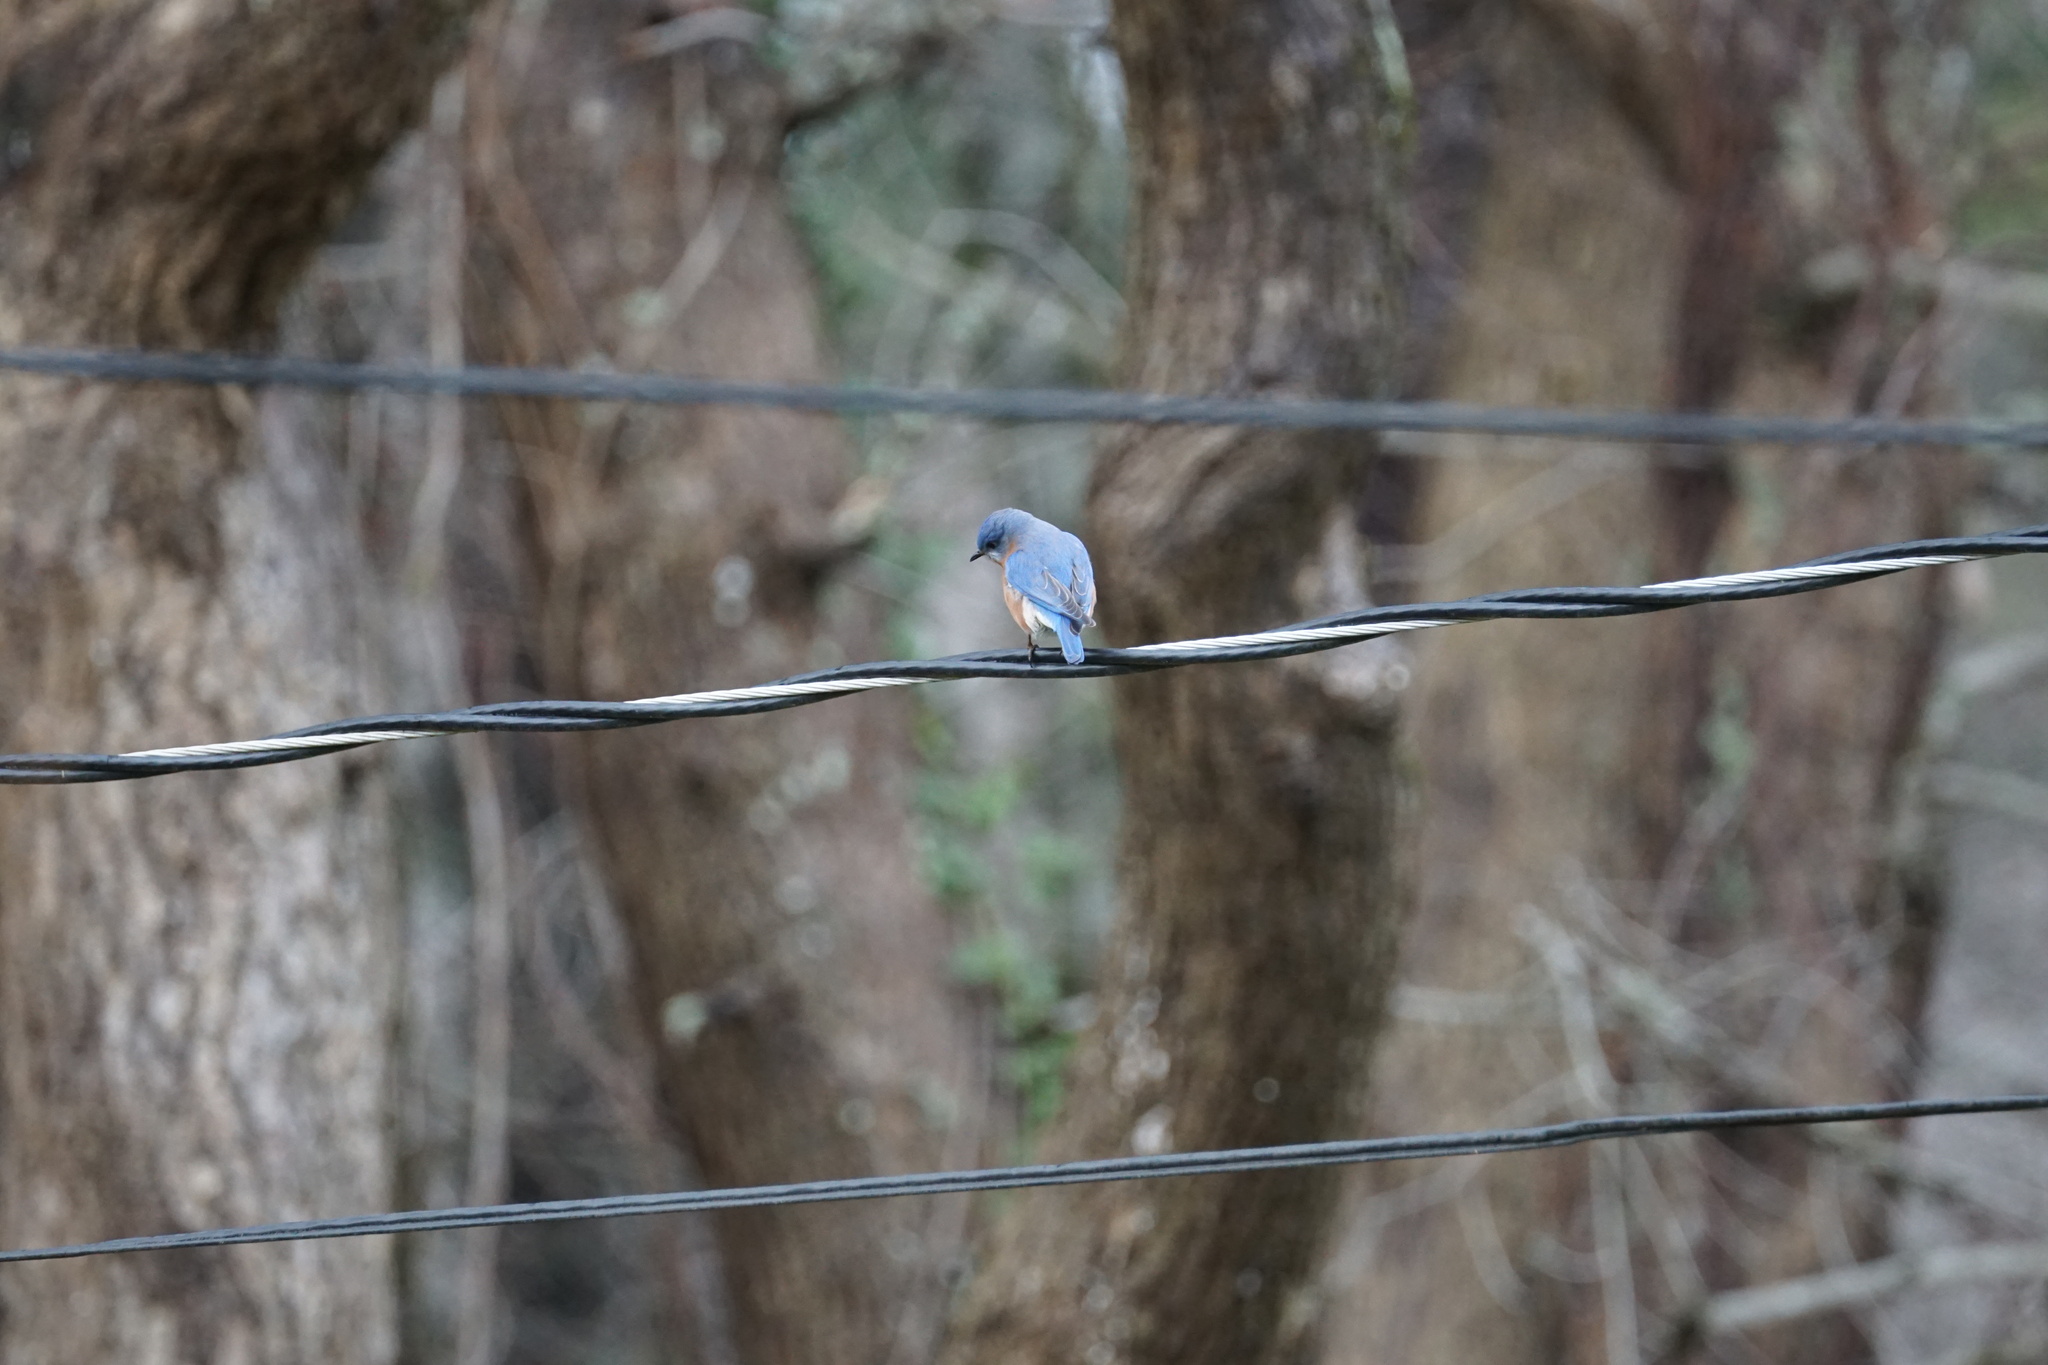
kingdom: Animalia
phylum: Chordata
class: Aves
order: Passeriformes
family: Turdidae
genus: Sialia
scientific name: Sialia sialis
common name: Eastern bluebird
